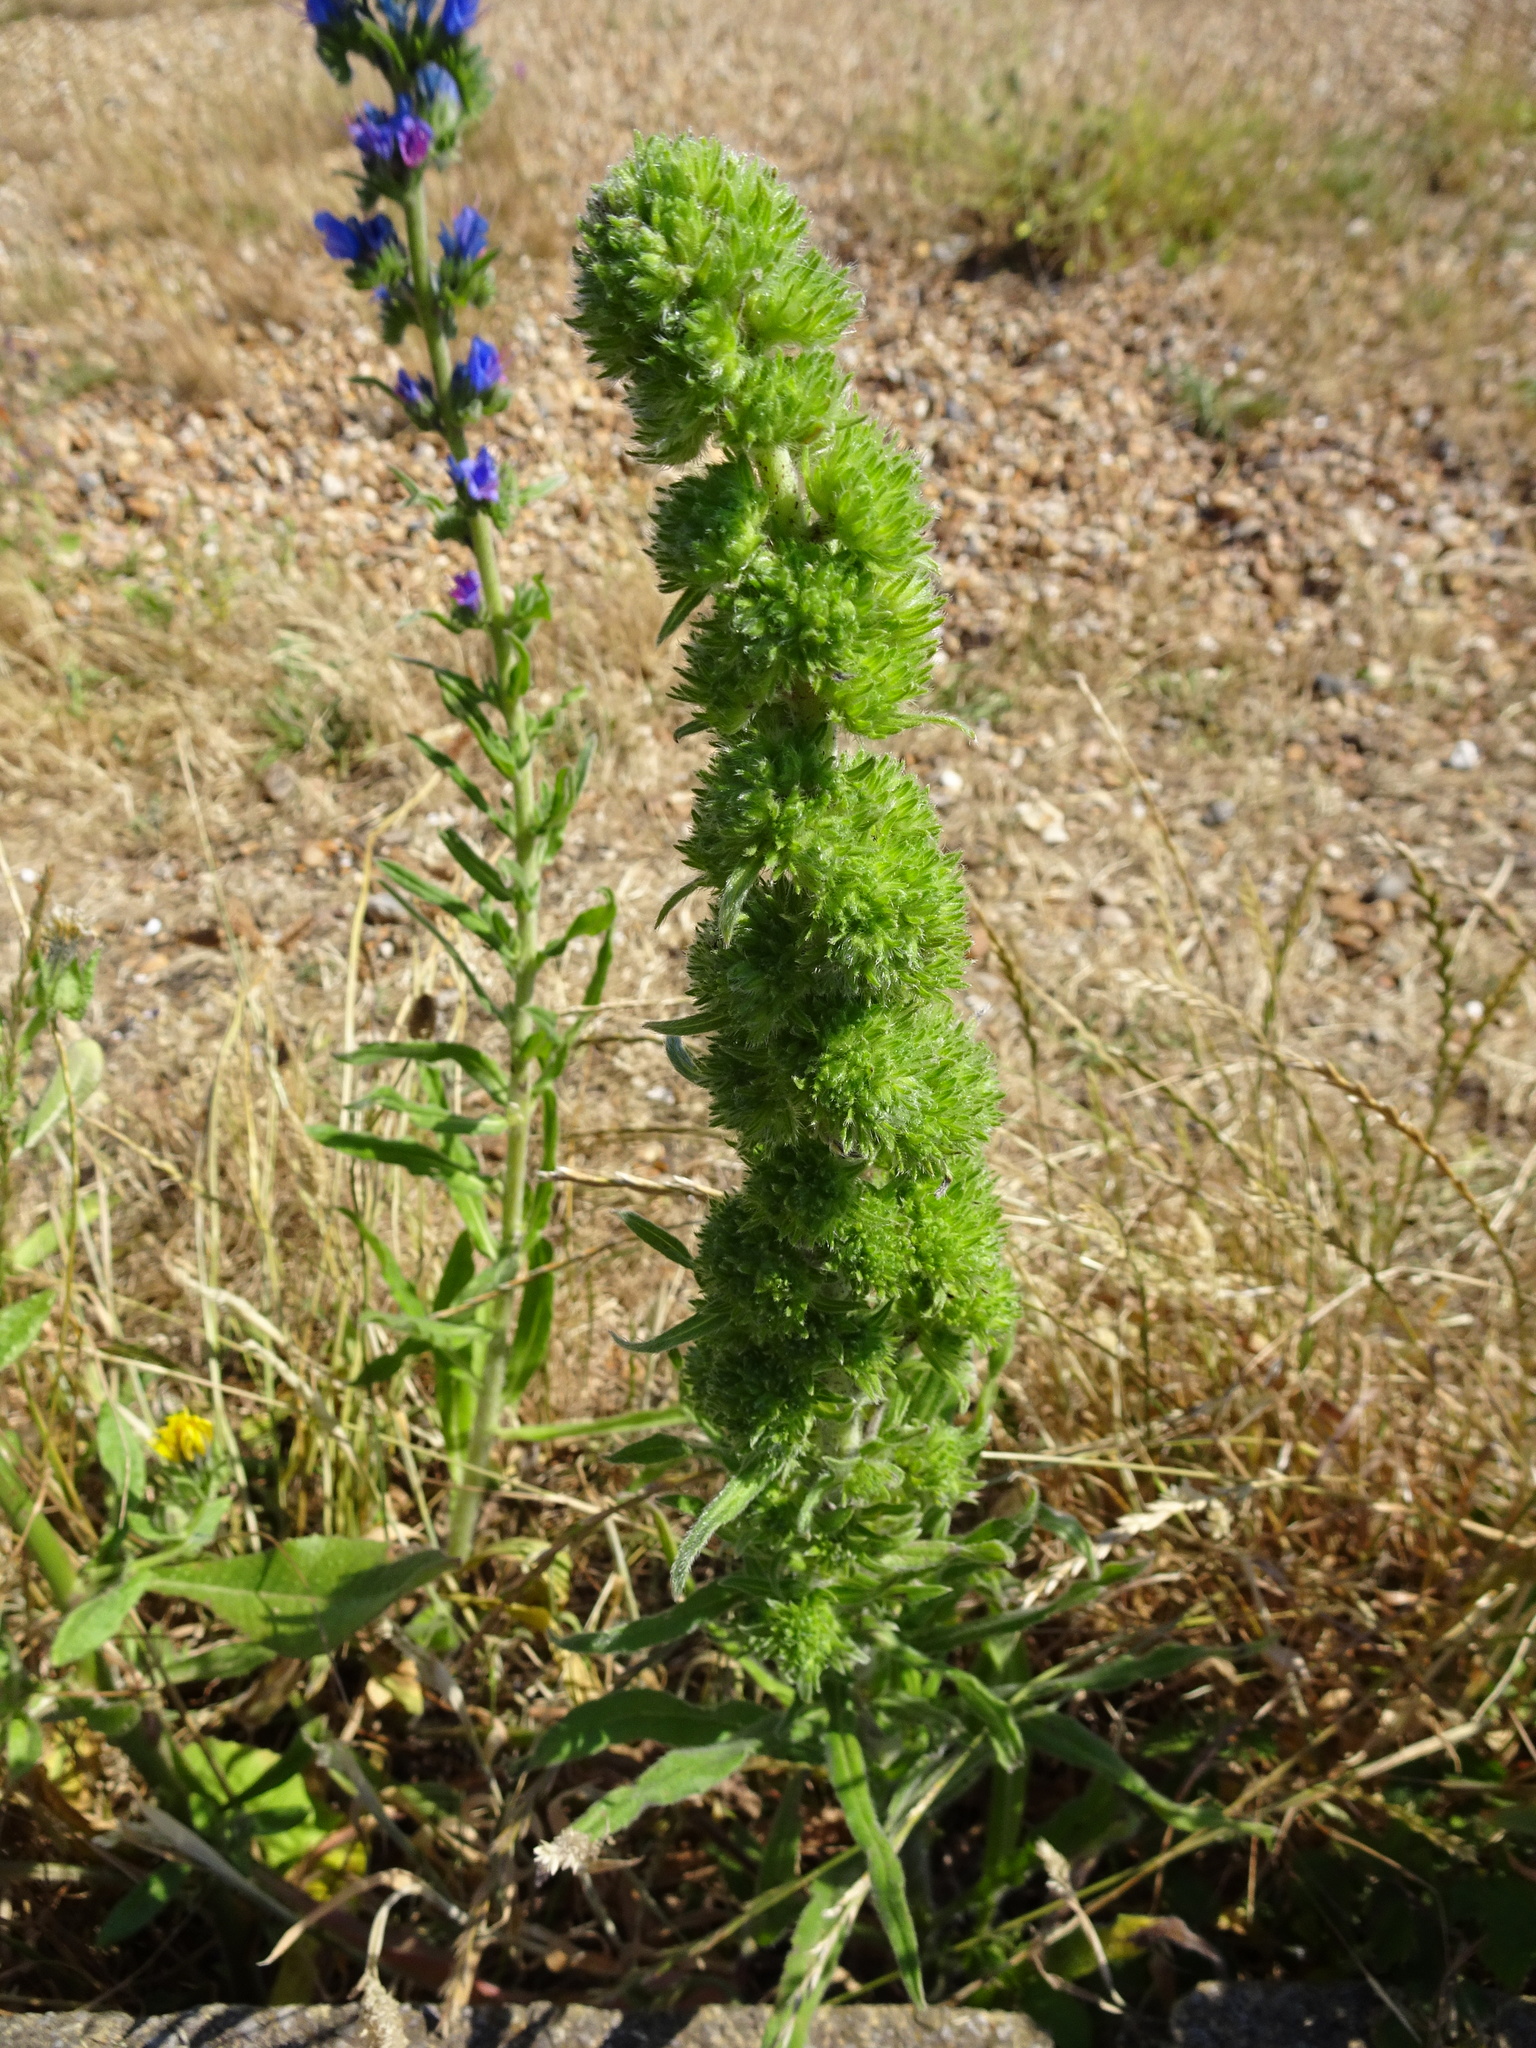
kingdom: Plantae
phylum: Tracheophyta
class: Magnoliopsida
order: Boraginales
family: Boraginaceae
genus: Echium
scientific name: Echium vulgare
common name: Common viper's bugloss
